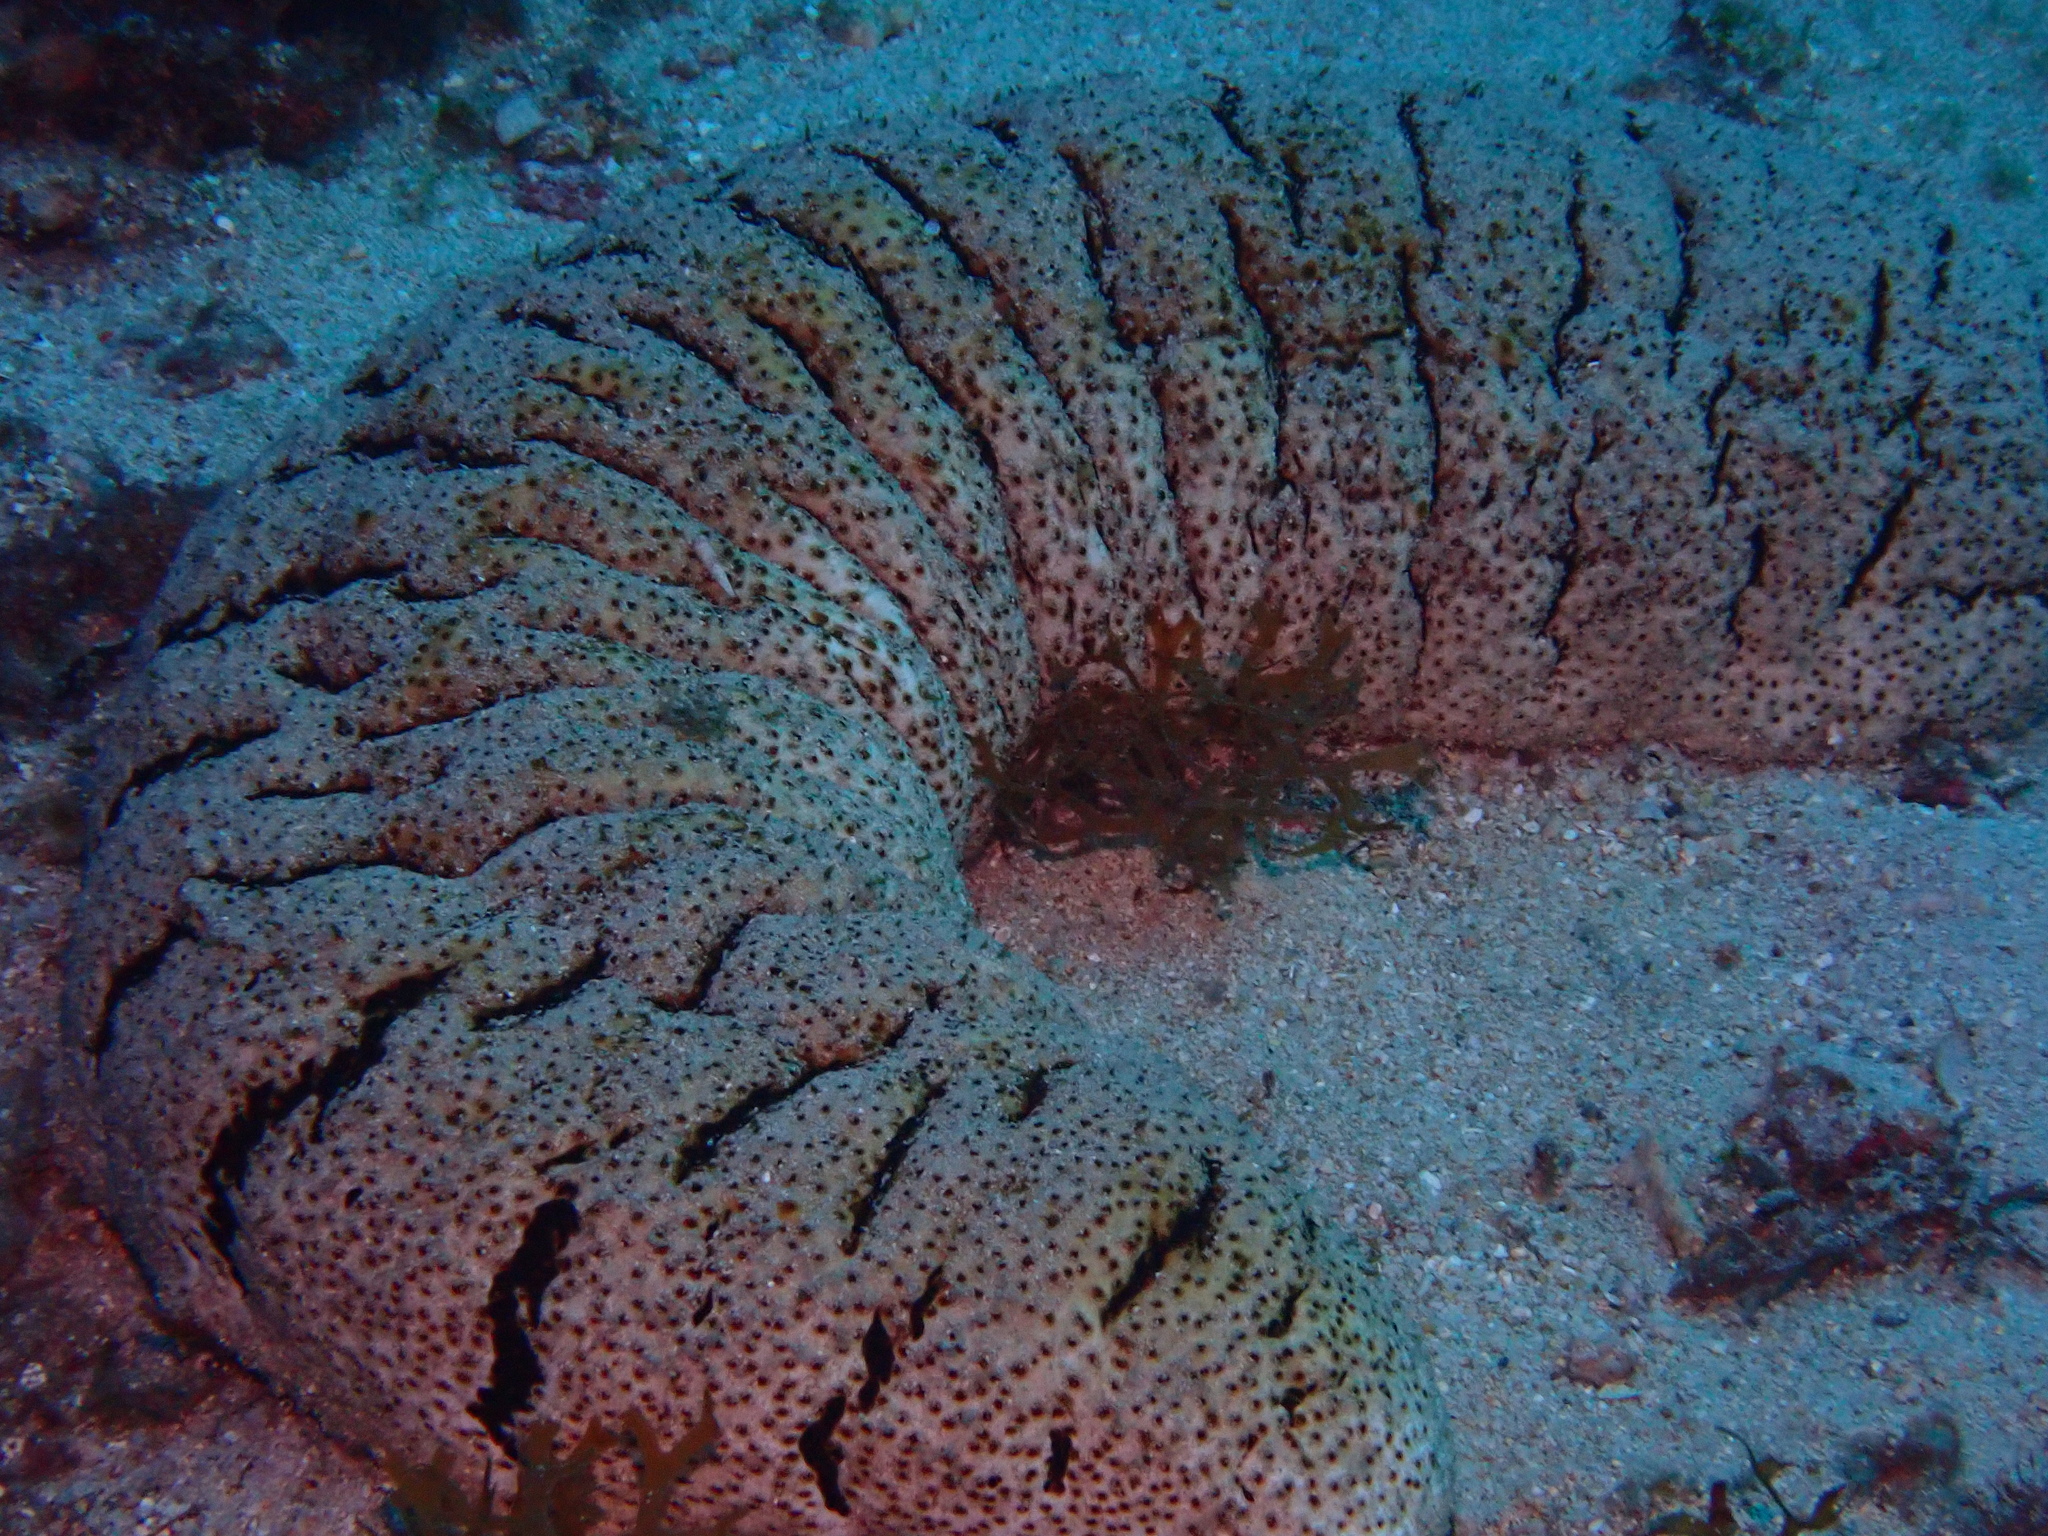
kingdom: Animalia
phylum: Echinodermata
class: Holothuroidea
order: Holothuriida
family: Holothuriidae
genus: Holothuria
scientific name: Holothuria fuscopunctata
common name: Elephant trunkfish
